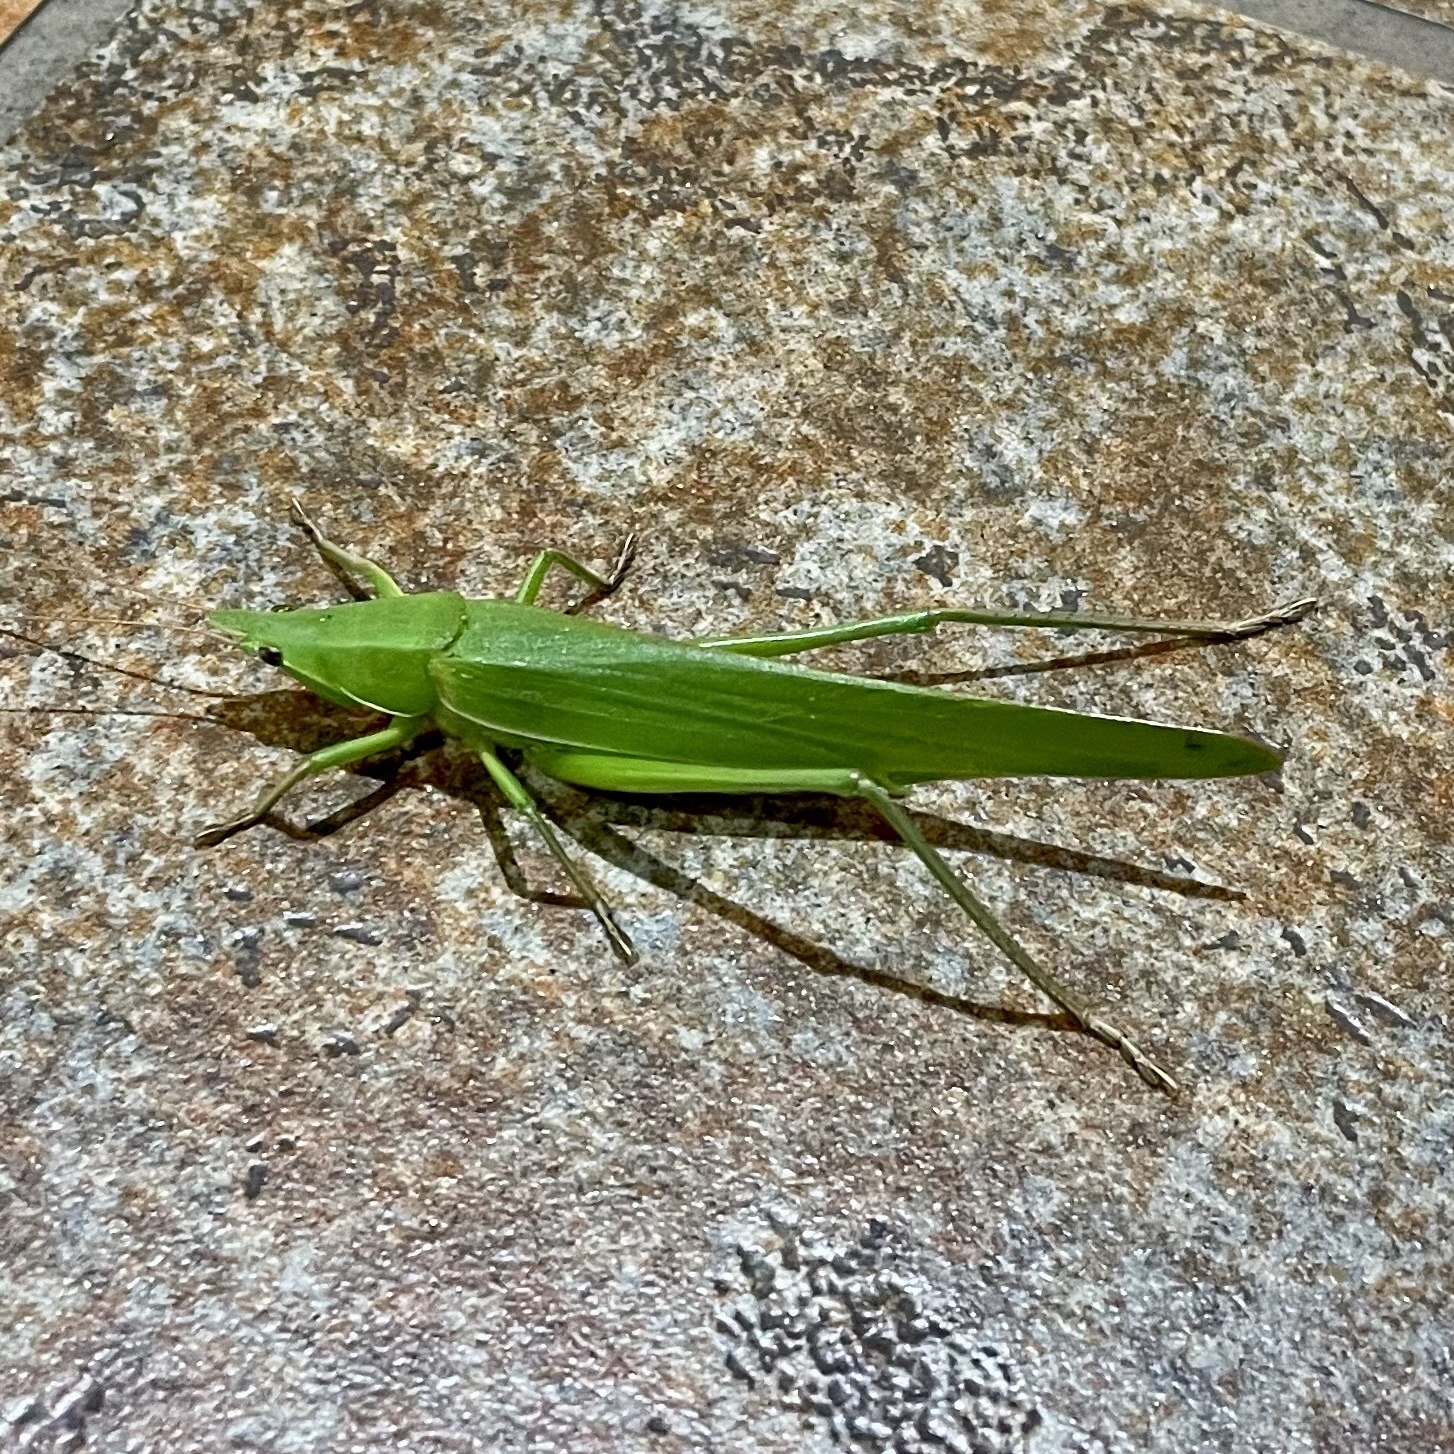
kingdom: Animalia
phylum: Arthropoda
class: Insecta
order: Orthoptera
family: Tettigoniidae
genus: Euconocephalus
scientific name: Euconocephalus varius
